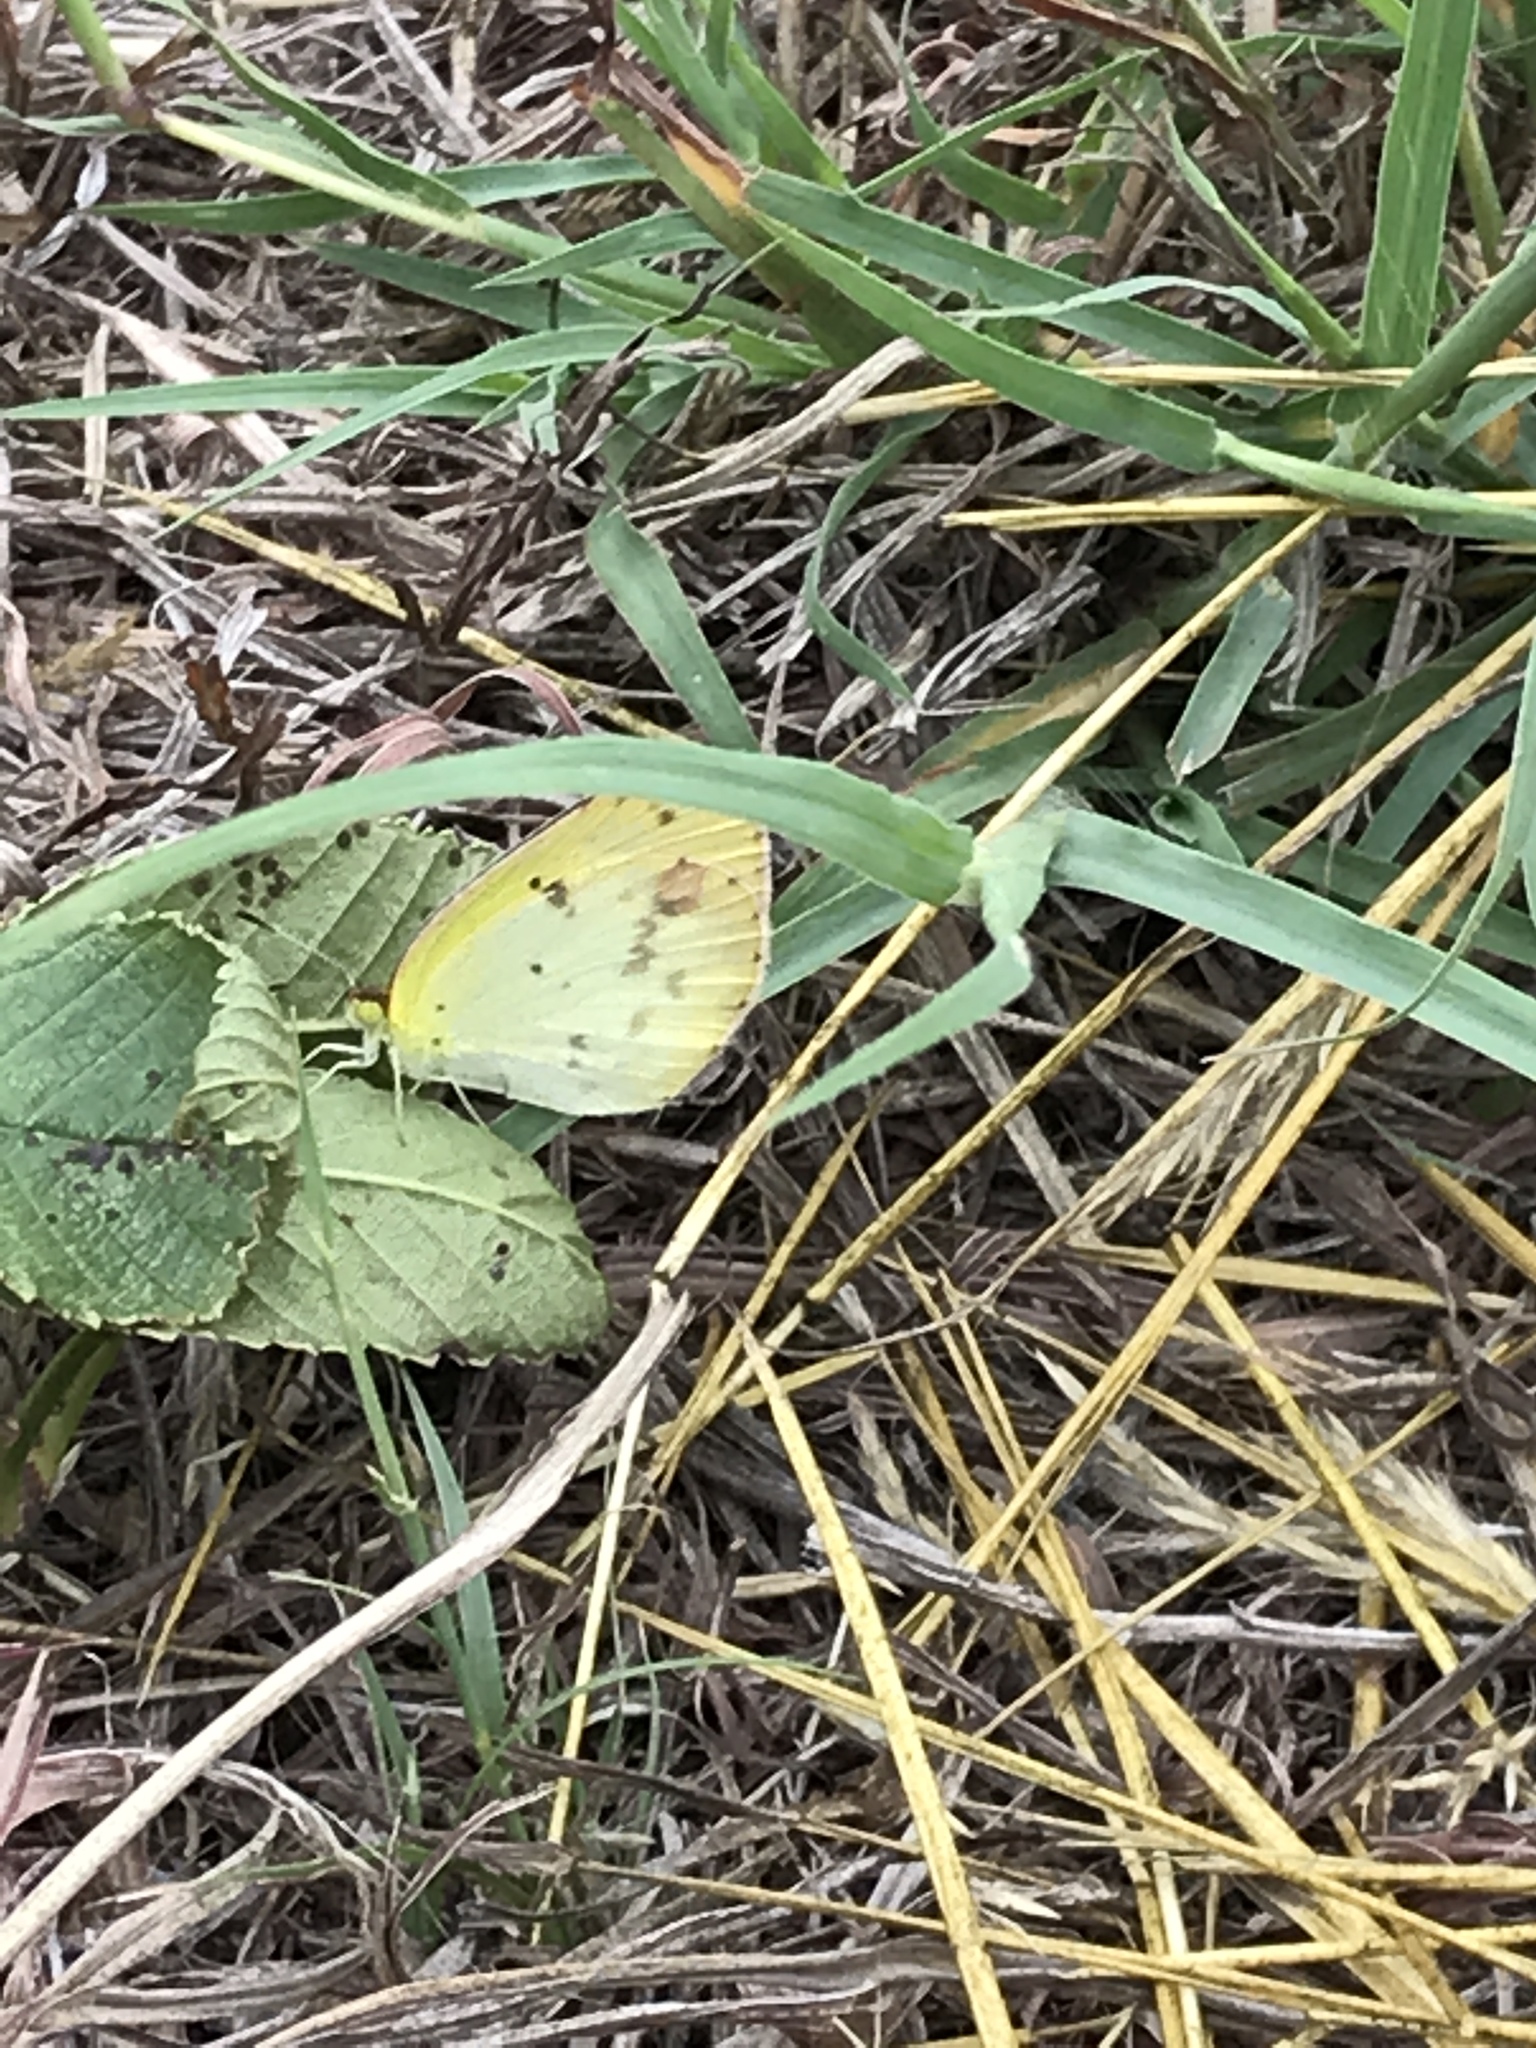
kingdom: Animalia
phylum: Arthropoda
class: Insecta
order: Lepidoptera
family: Pieridae
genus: Pyrisitia
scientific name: Pyrisitia lisa
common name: Little yellow
